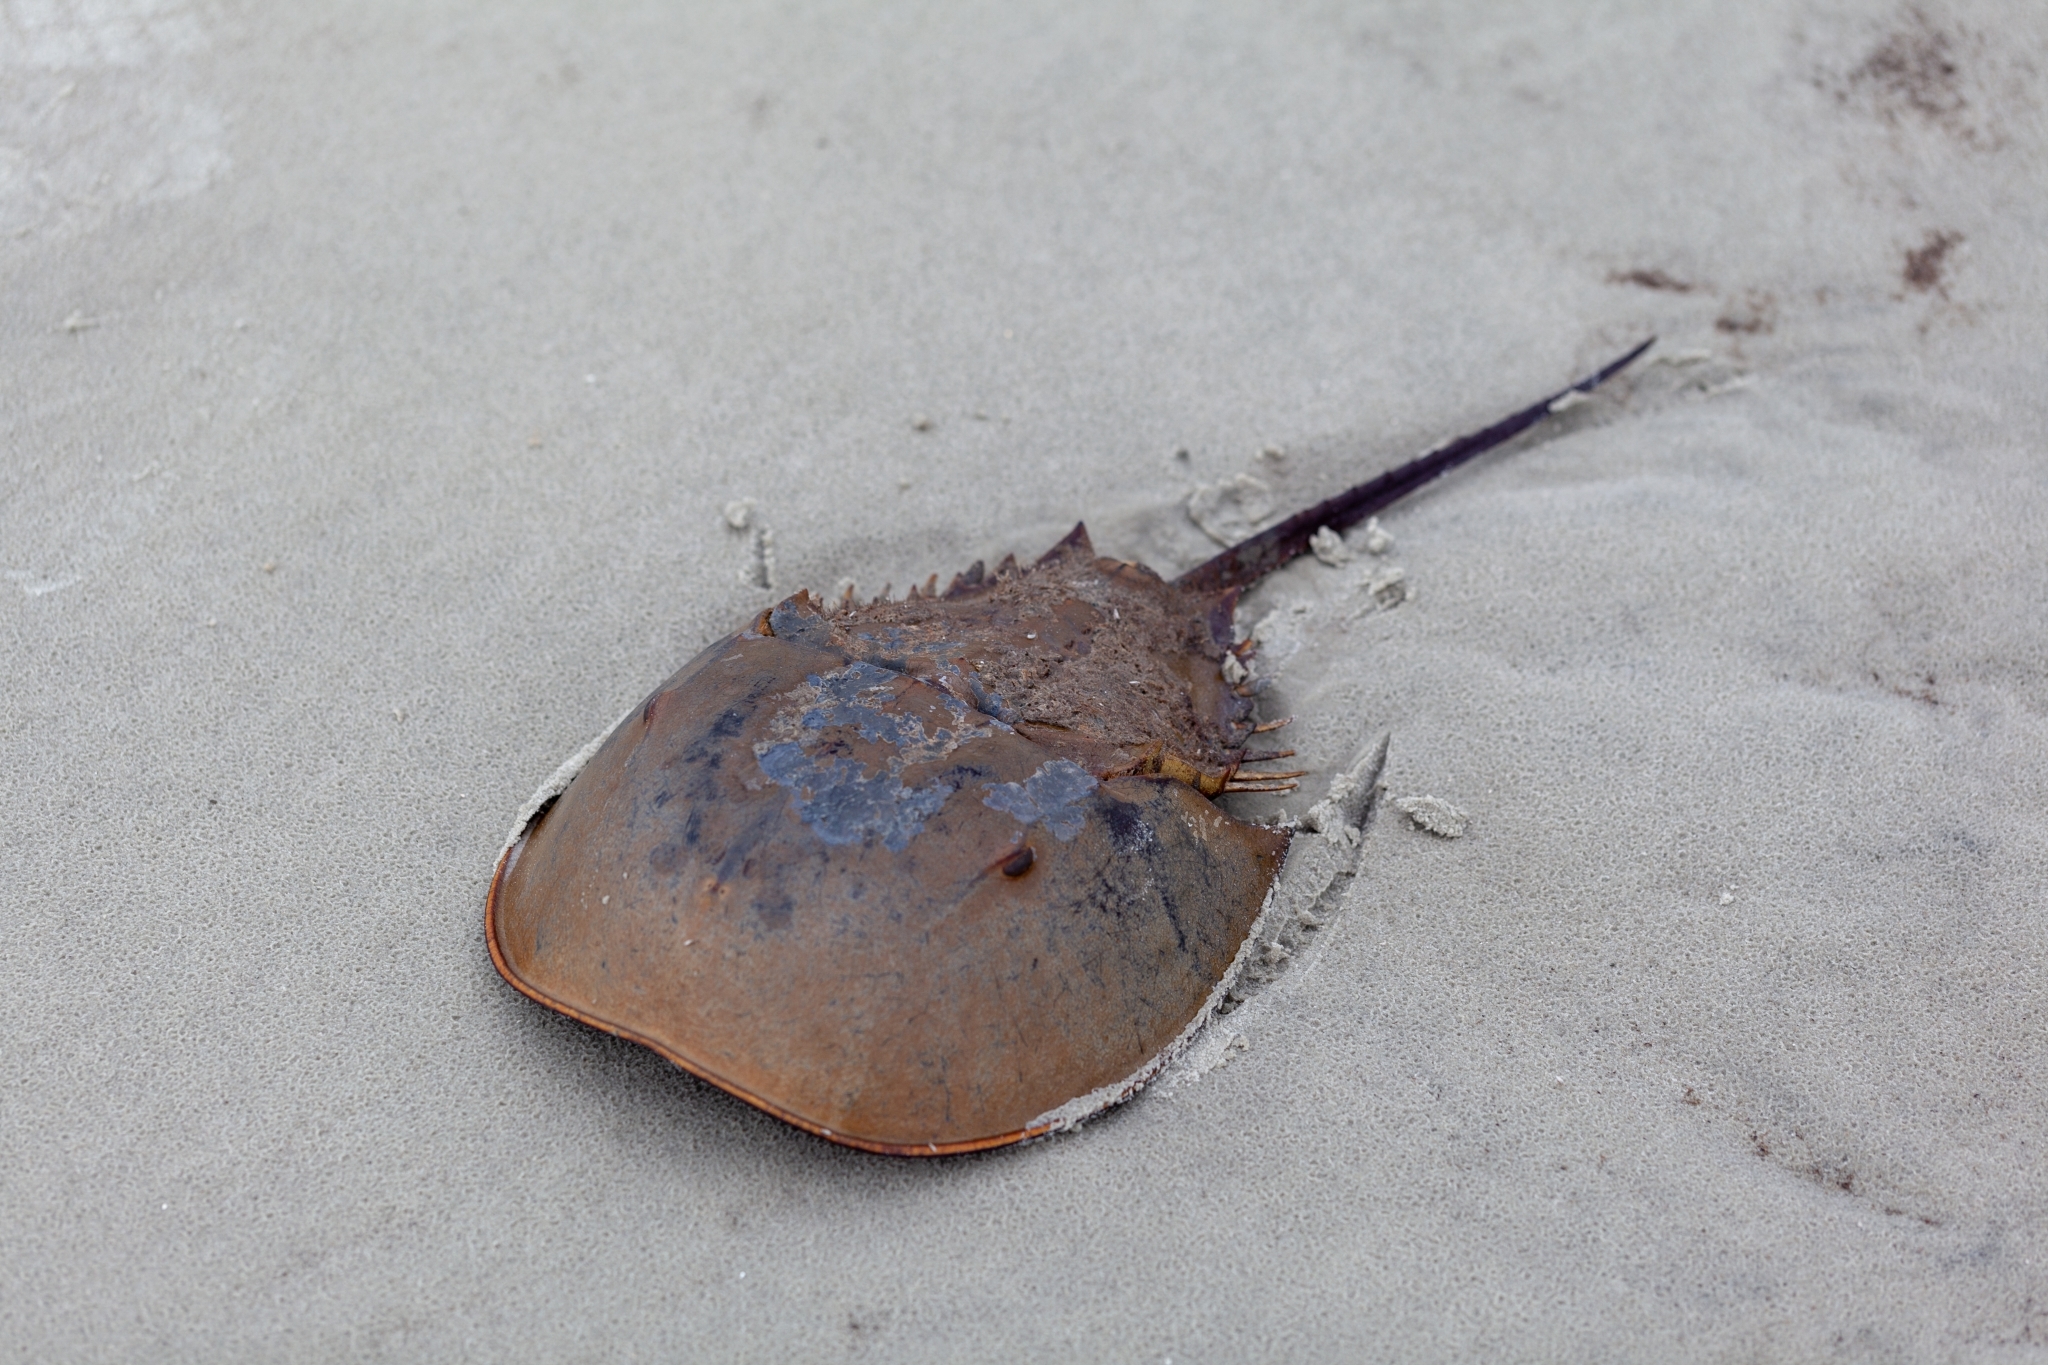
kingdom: Animalia
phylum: Arthropoda
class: Merostomata
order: Xiphosurida
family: Limulidae
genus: Limulus
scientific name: Limulus polyphemus
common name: Horseshoe crab
